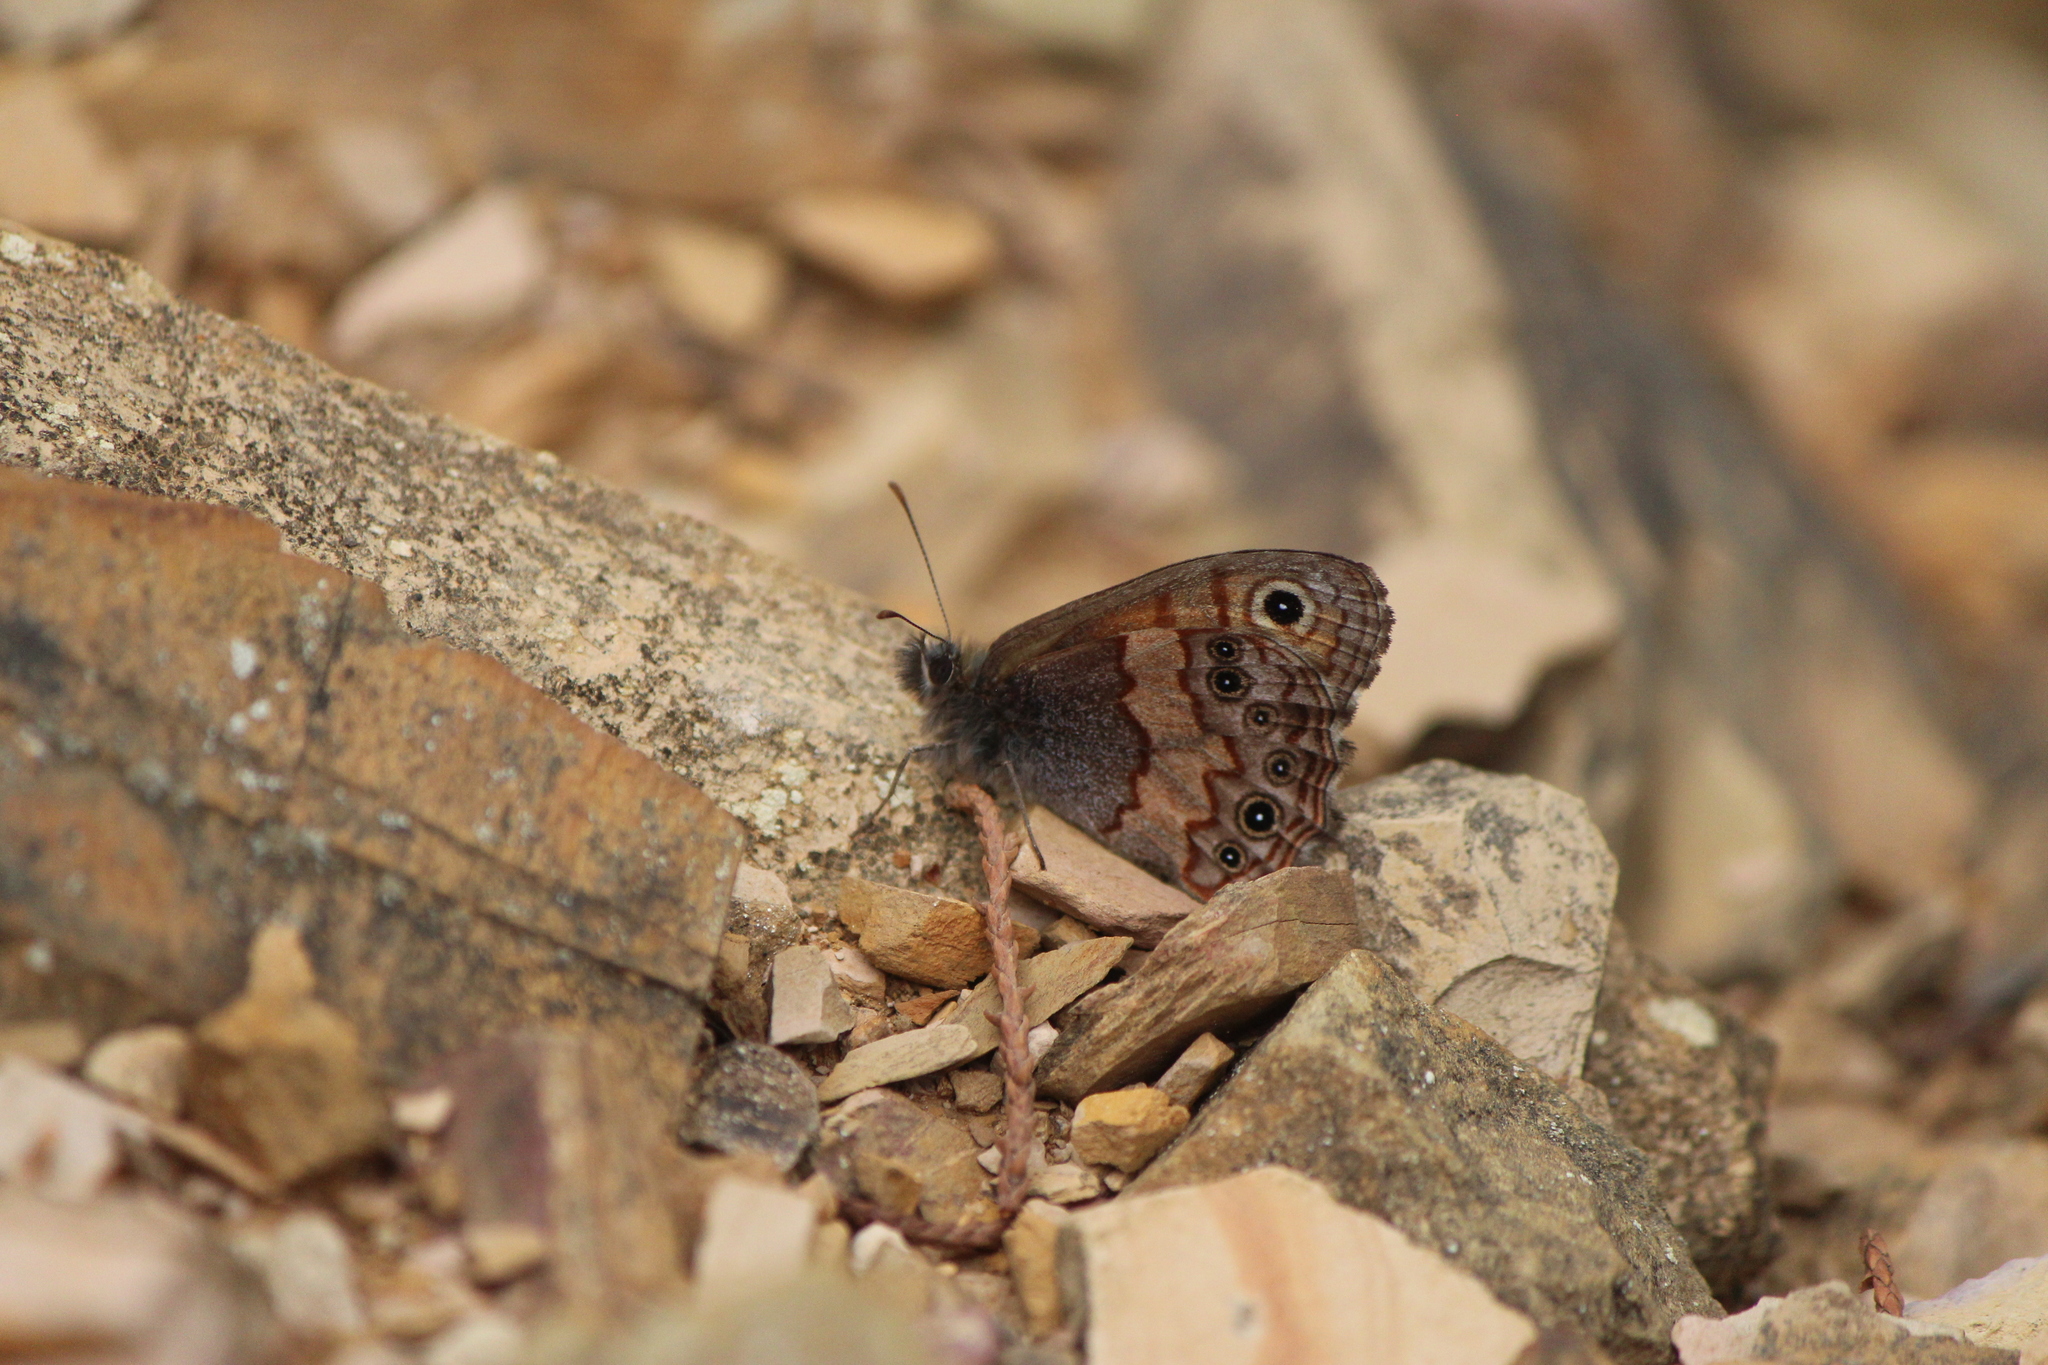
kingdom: Animalia
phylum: Arthropoda
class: Insecta
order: Lepidoptera
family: Nymphalidae
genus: Paramecera
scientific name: Paramecera xicaque
